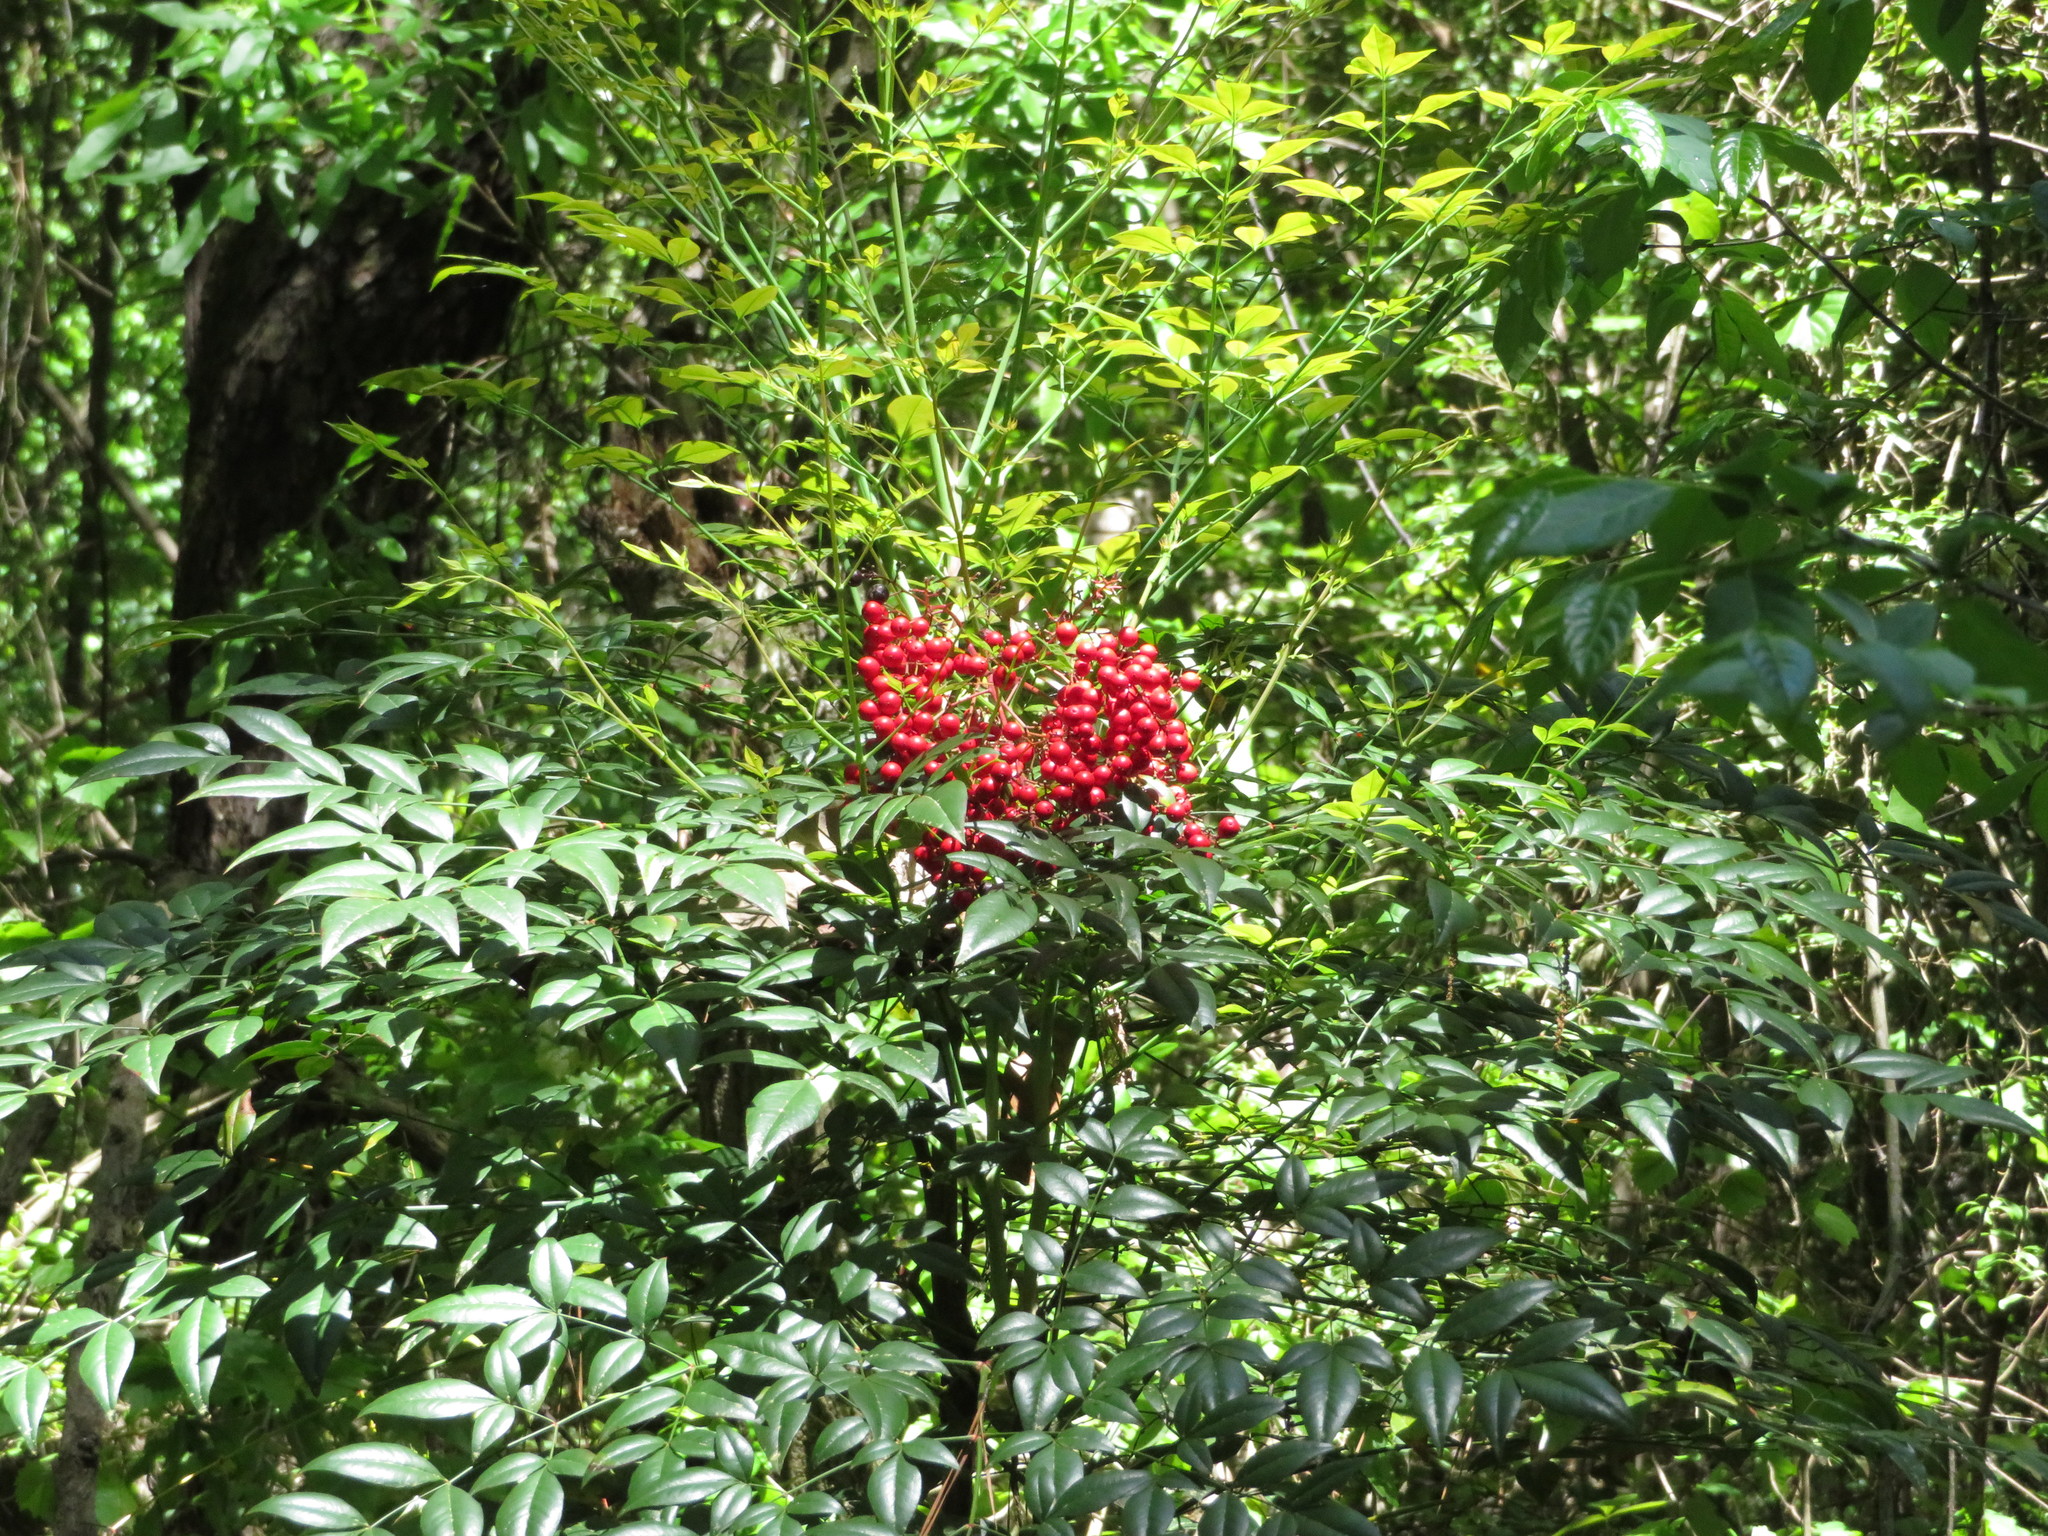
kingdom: Plantae
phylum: Tracheophyta
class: Magnoliopsida
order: Ranunculales
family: Berberidaceae
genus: Nandina
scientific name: Nandina domestica
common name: Sacred bamboo
